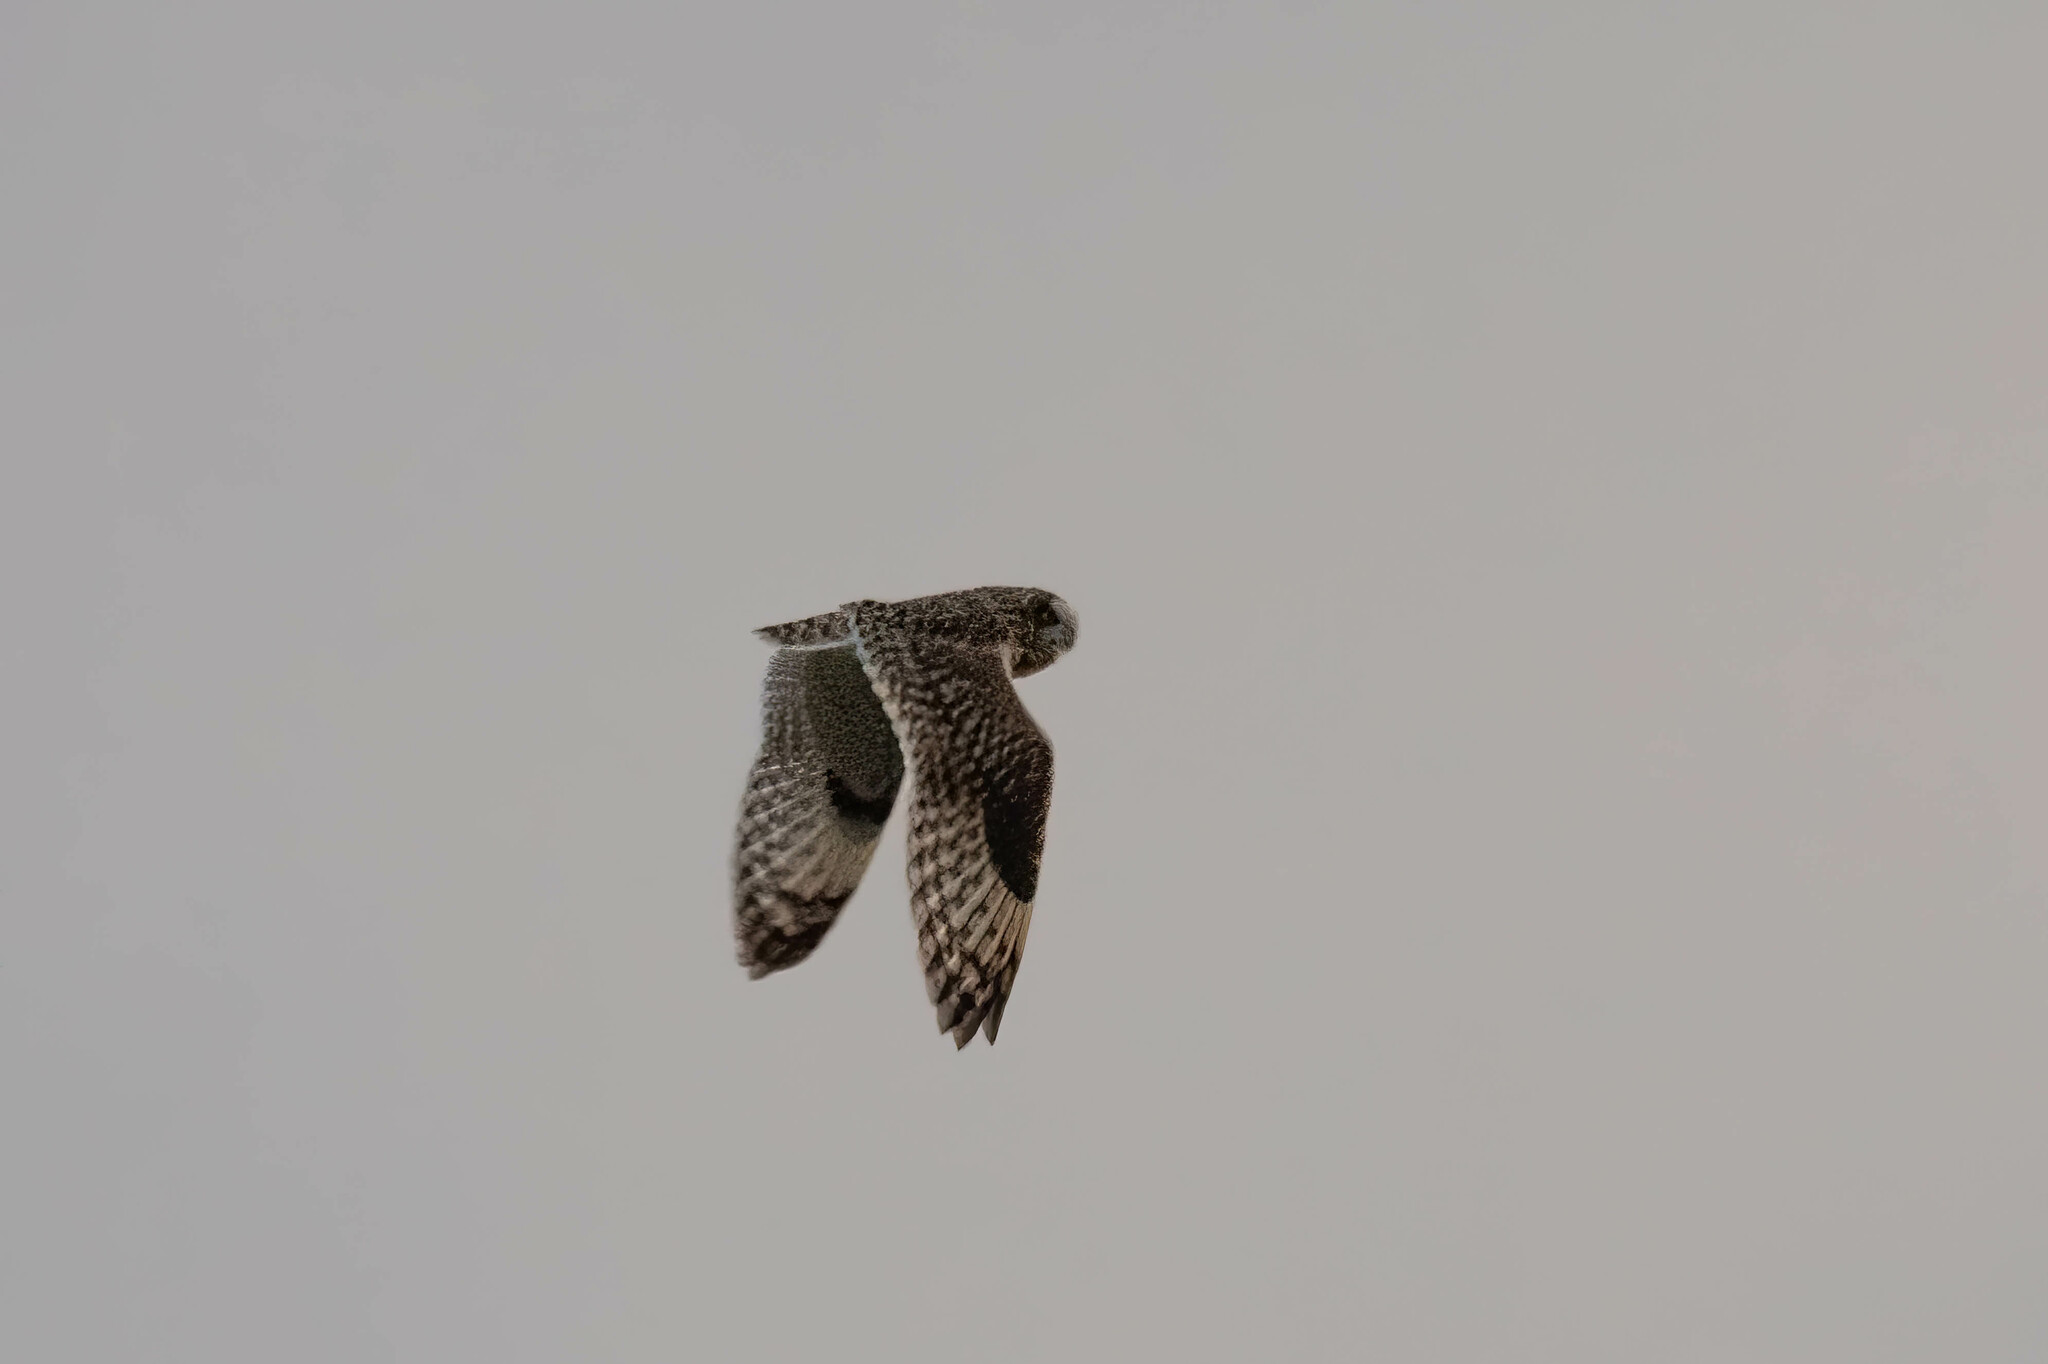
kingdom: Animalia
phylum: Chordata
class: Aves
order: Strigiformes
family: Strigidae
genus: Asio
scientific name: Asio flammeus
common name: Short-eared owl
